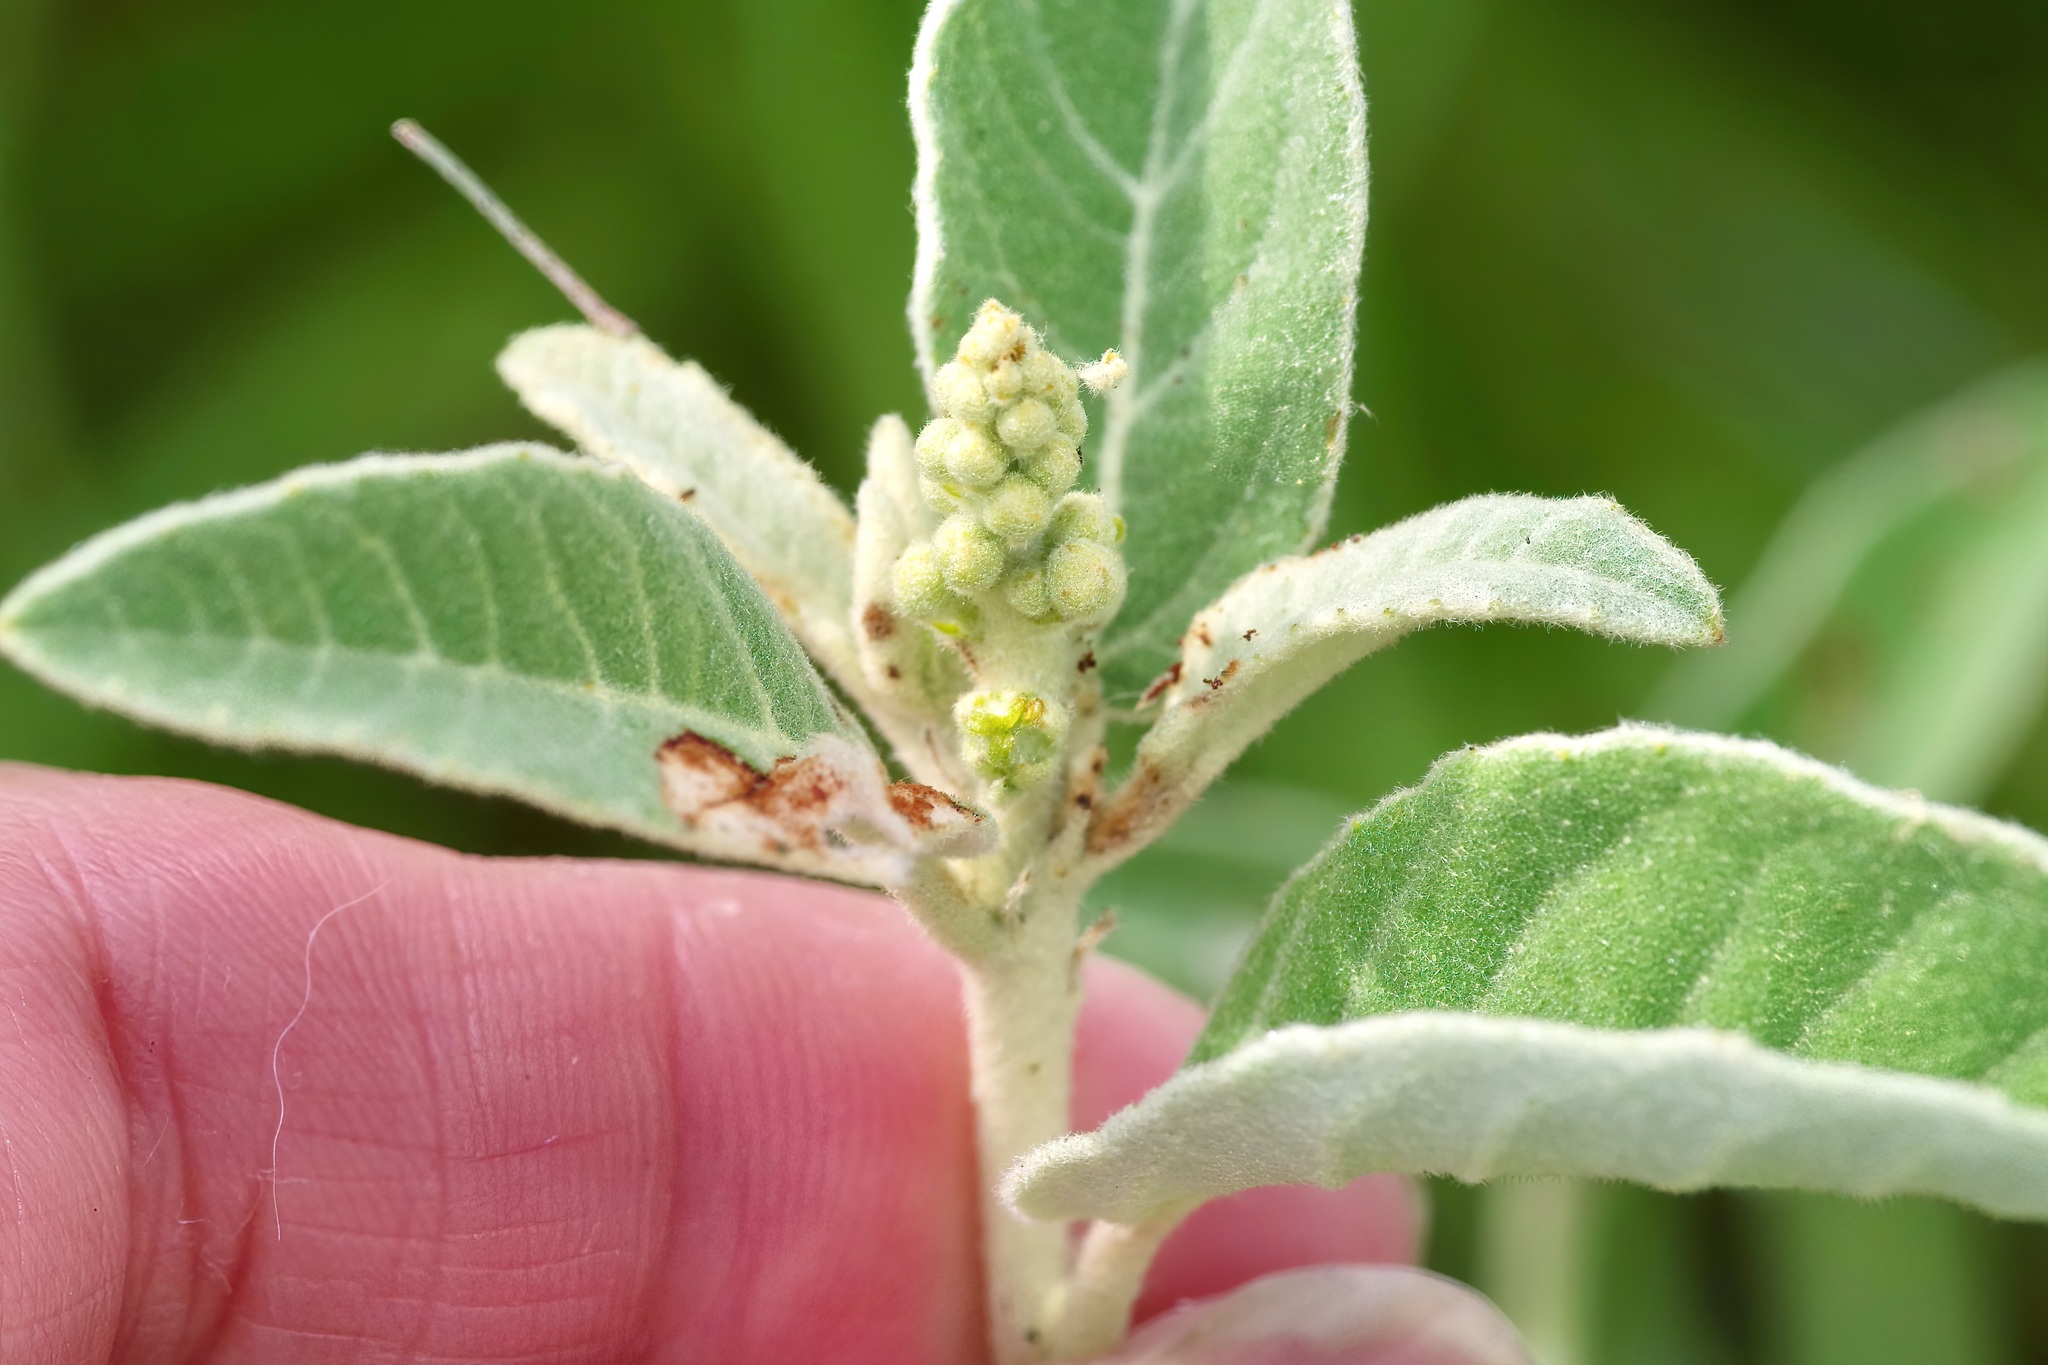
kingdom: Plantae
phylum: Tracheophyta
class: Magnoliopsida
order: Malpighiales
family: Euphorbiaceae
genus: Croton
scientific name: Croton incanus
